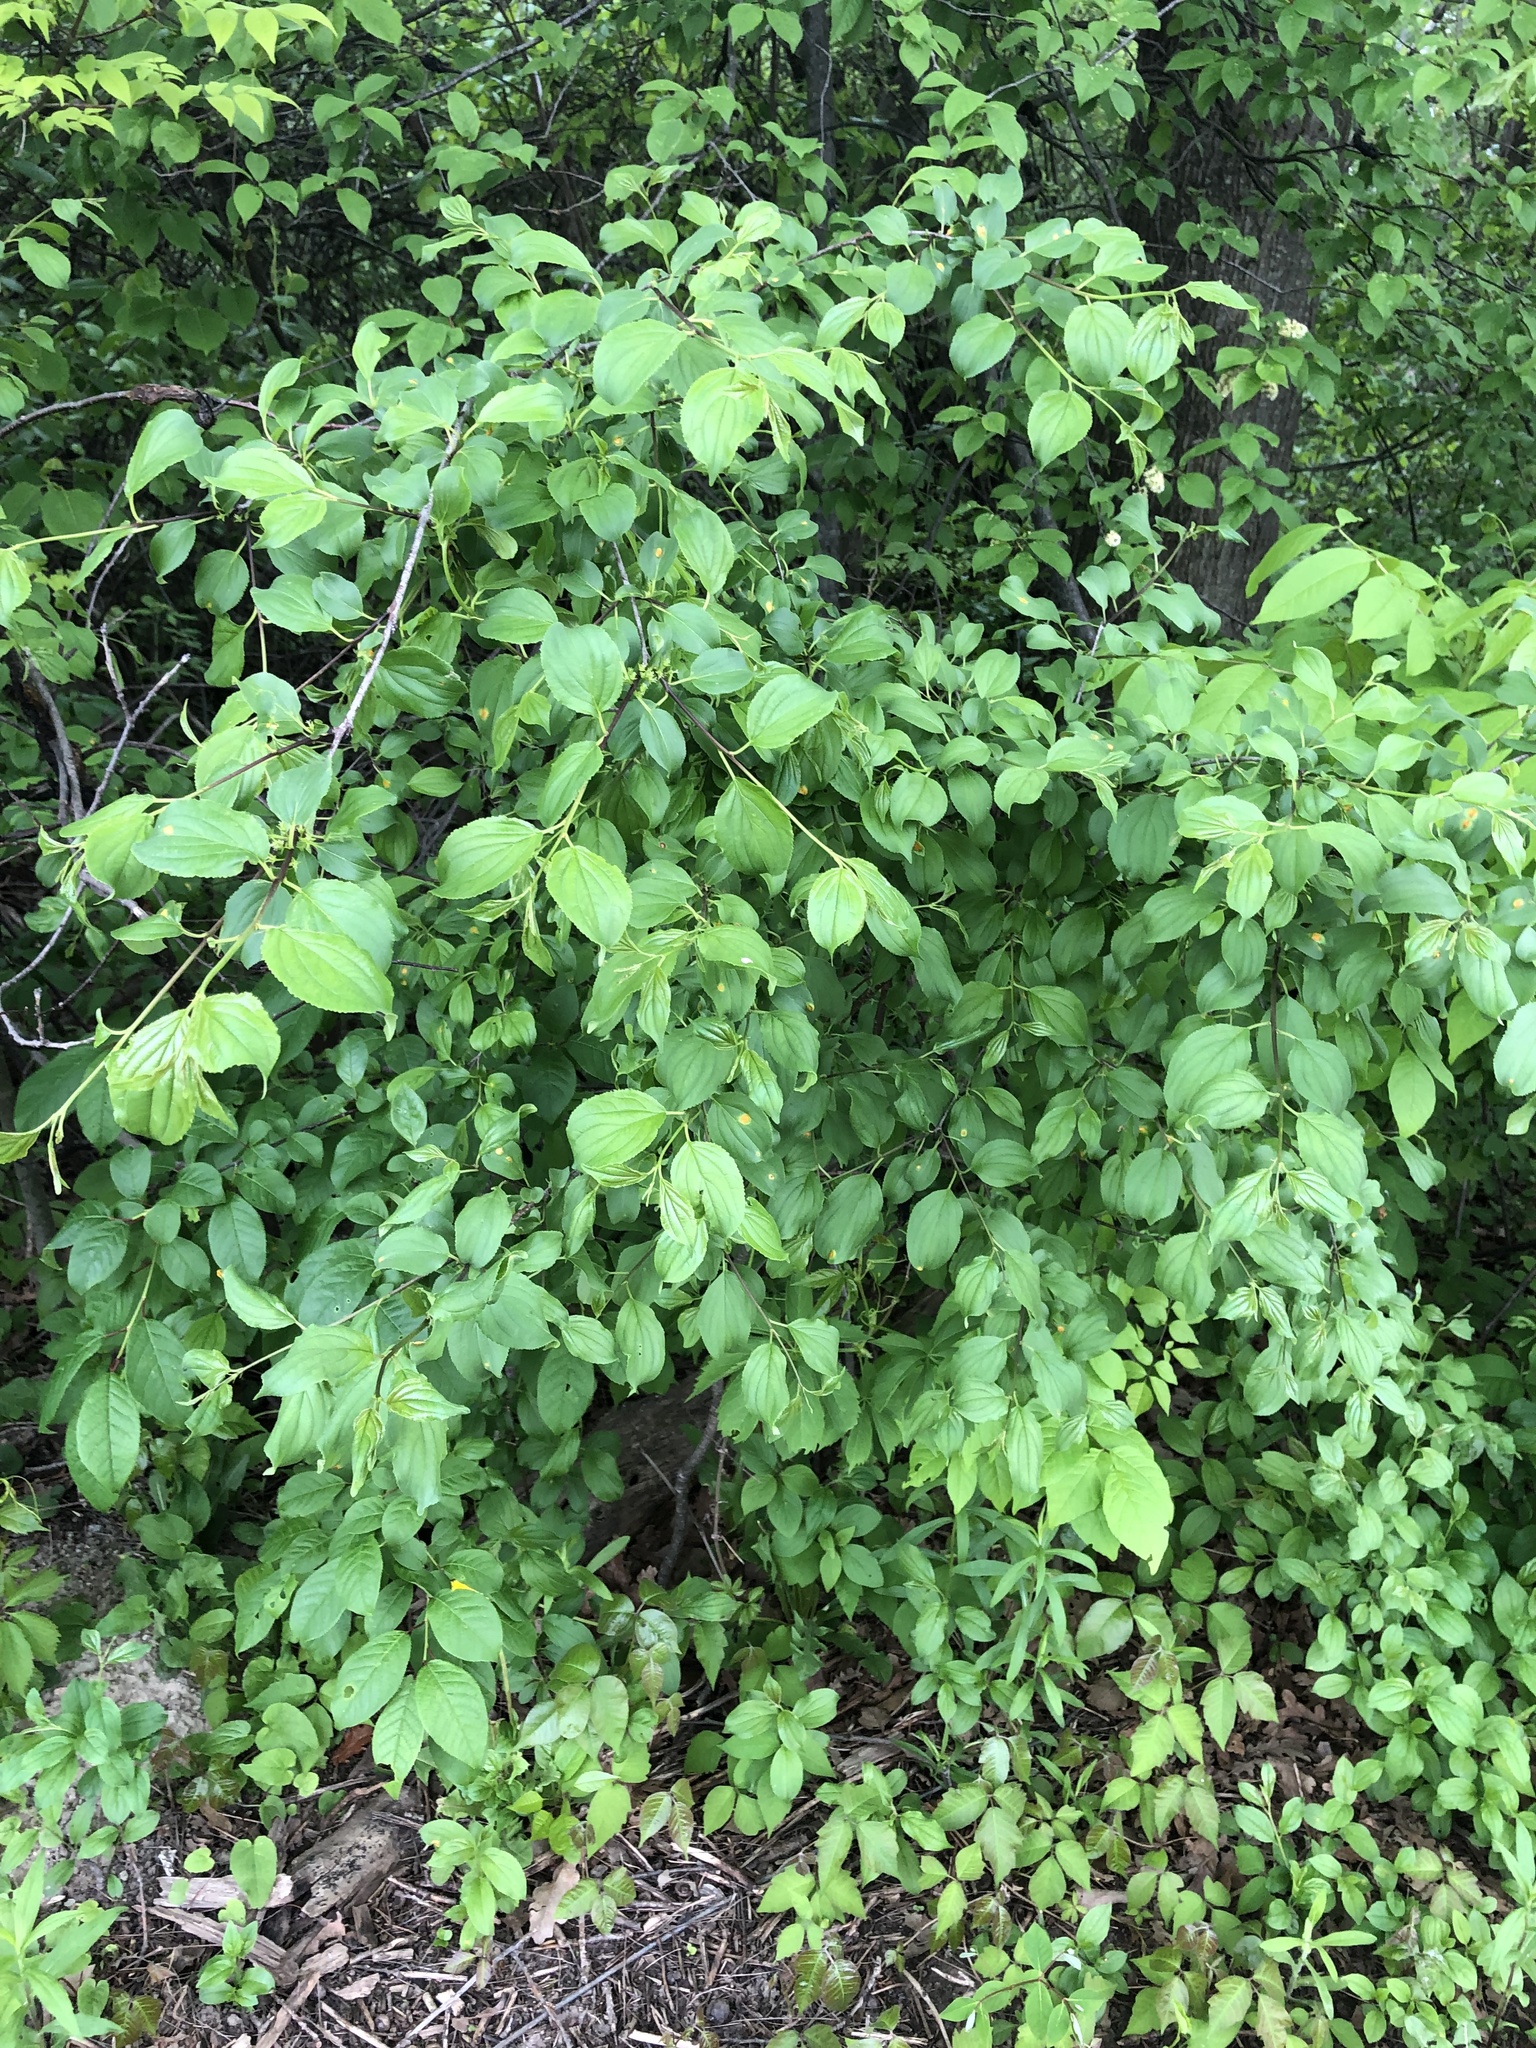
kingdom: Plantae
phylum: Tracheophyta
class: Magnoliopsida
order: Rosales
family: Rhamnaceae
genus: Rhamnus
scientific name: Rhamnus cathartica
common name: Common buckthorn
